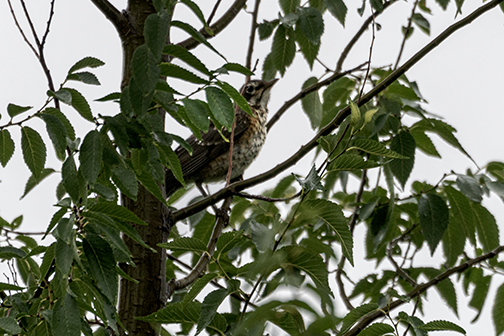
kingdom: Animalia
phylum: Chordata
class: Aves
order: Passeriformes
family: Turdidae
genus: Catharus
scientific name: Catharus ustulatus
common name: Swainson's thrush
